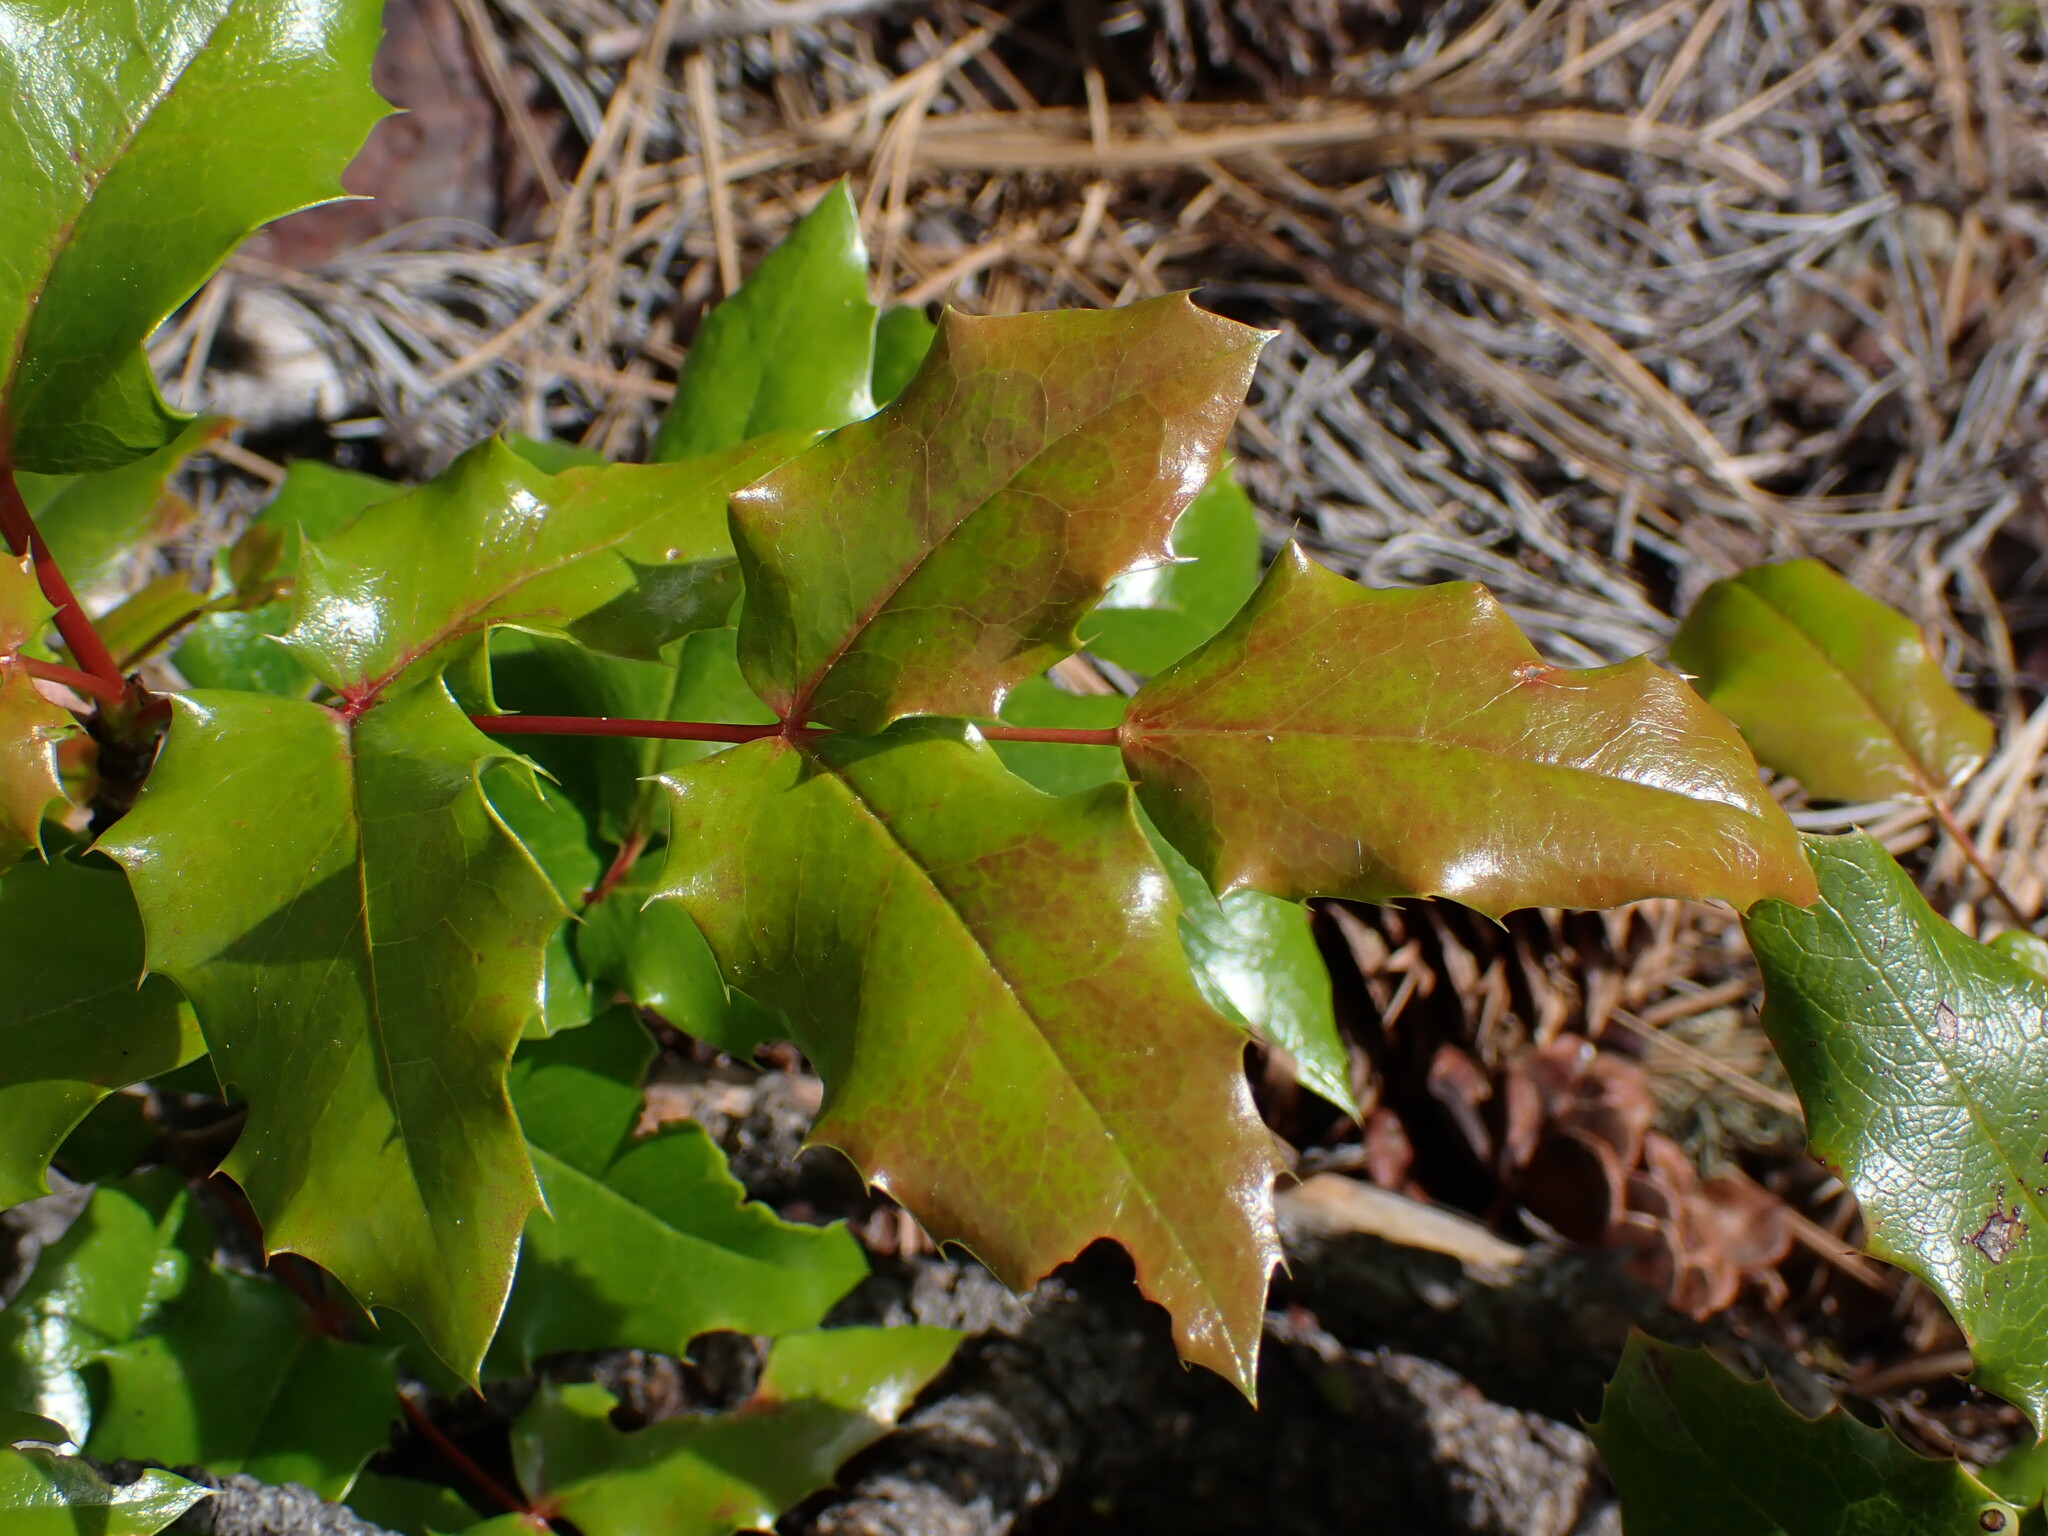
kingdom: Plantae
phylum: Tracheophyta
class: Magnoliopsida
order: Ranunculales
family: Berberidaceae
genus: Mahonia
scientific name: Mahonia aquifolium
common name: Oregon-grape
